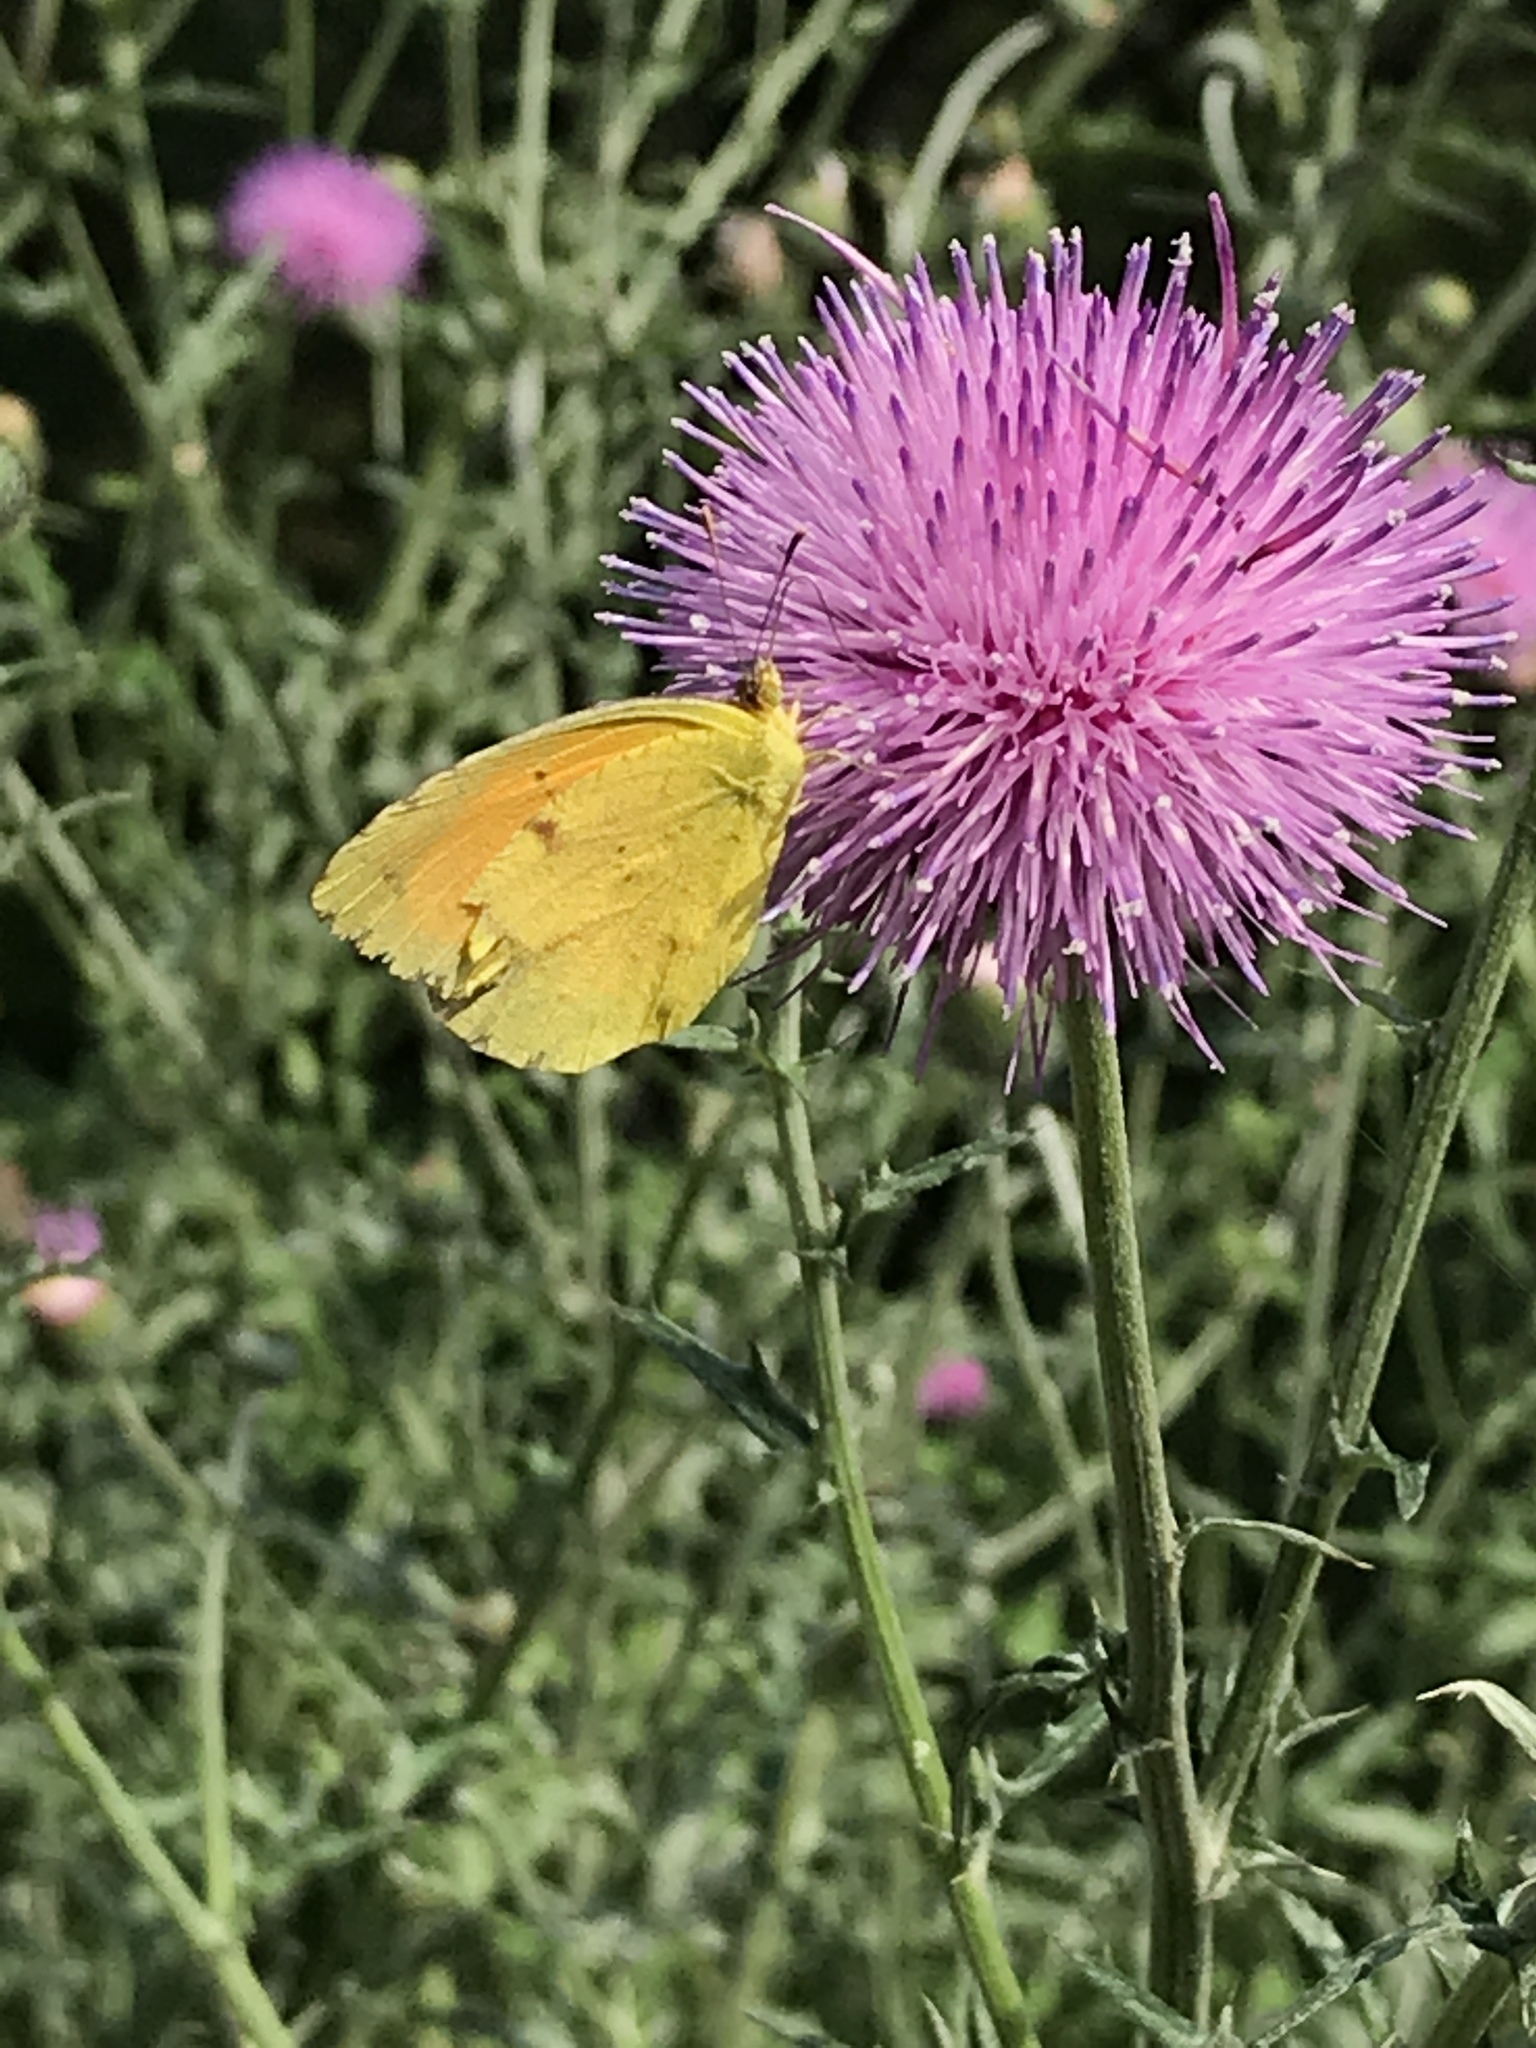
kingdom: Animalia
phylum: Arthropoda
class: Insecta
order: Lepidoptera
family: Pieridae
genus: Abaeis
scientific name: Abaeis nicippe
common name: Sleepy orange
